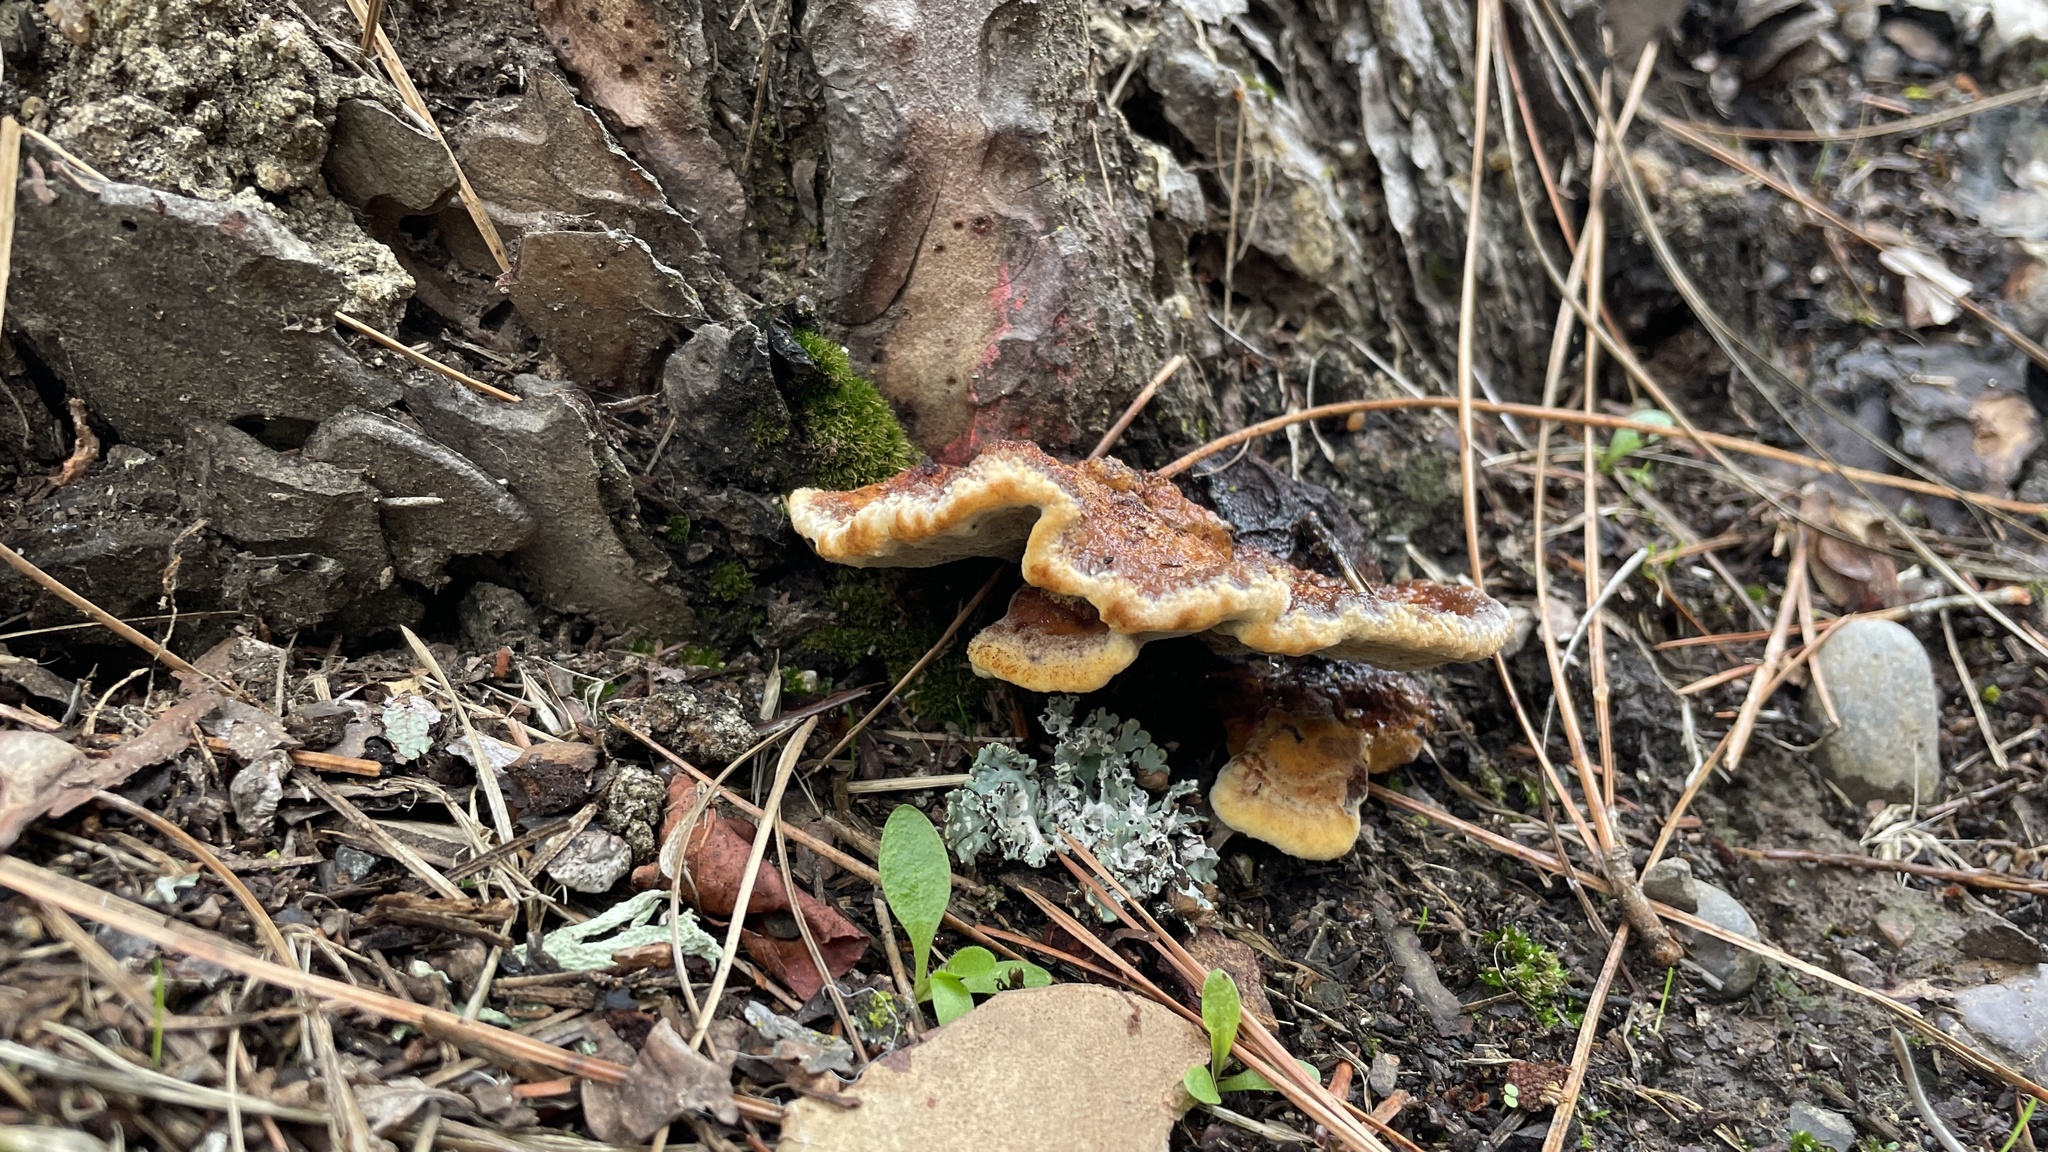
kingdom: Fungi
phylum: Basidiomycota
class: Agaricomycetes
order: Polyporales
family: Laetiporaceae
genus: Phaeolus
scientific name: Phaeolus schweinitzii
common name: Dyer's mazegill
